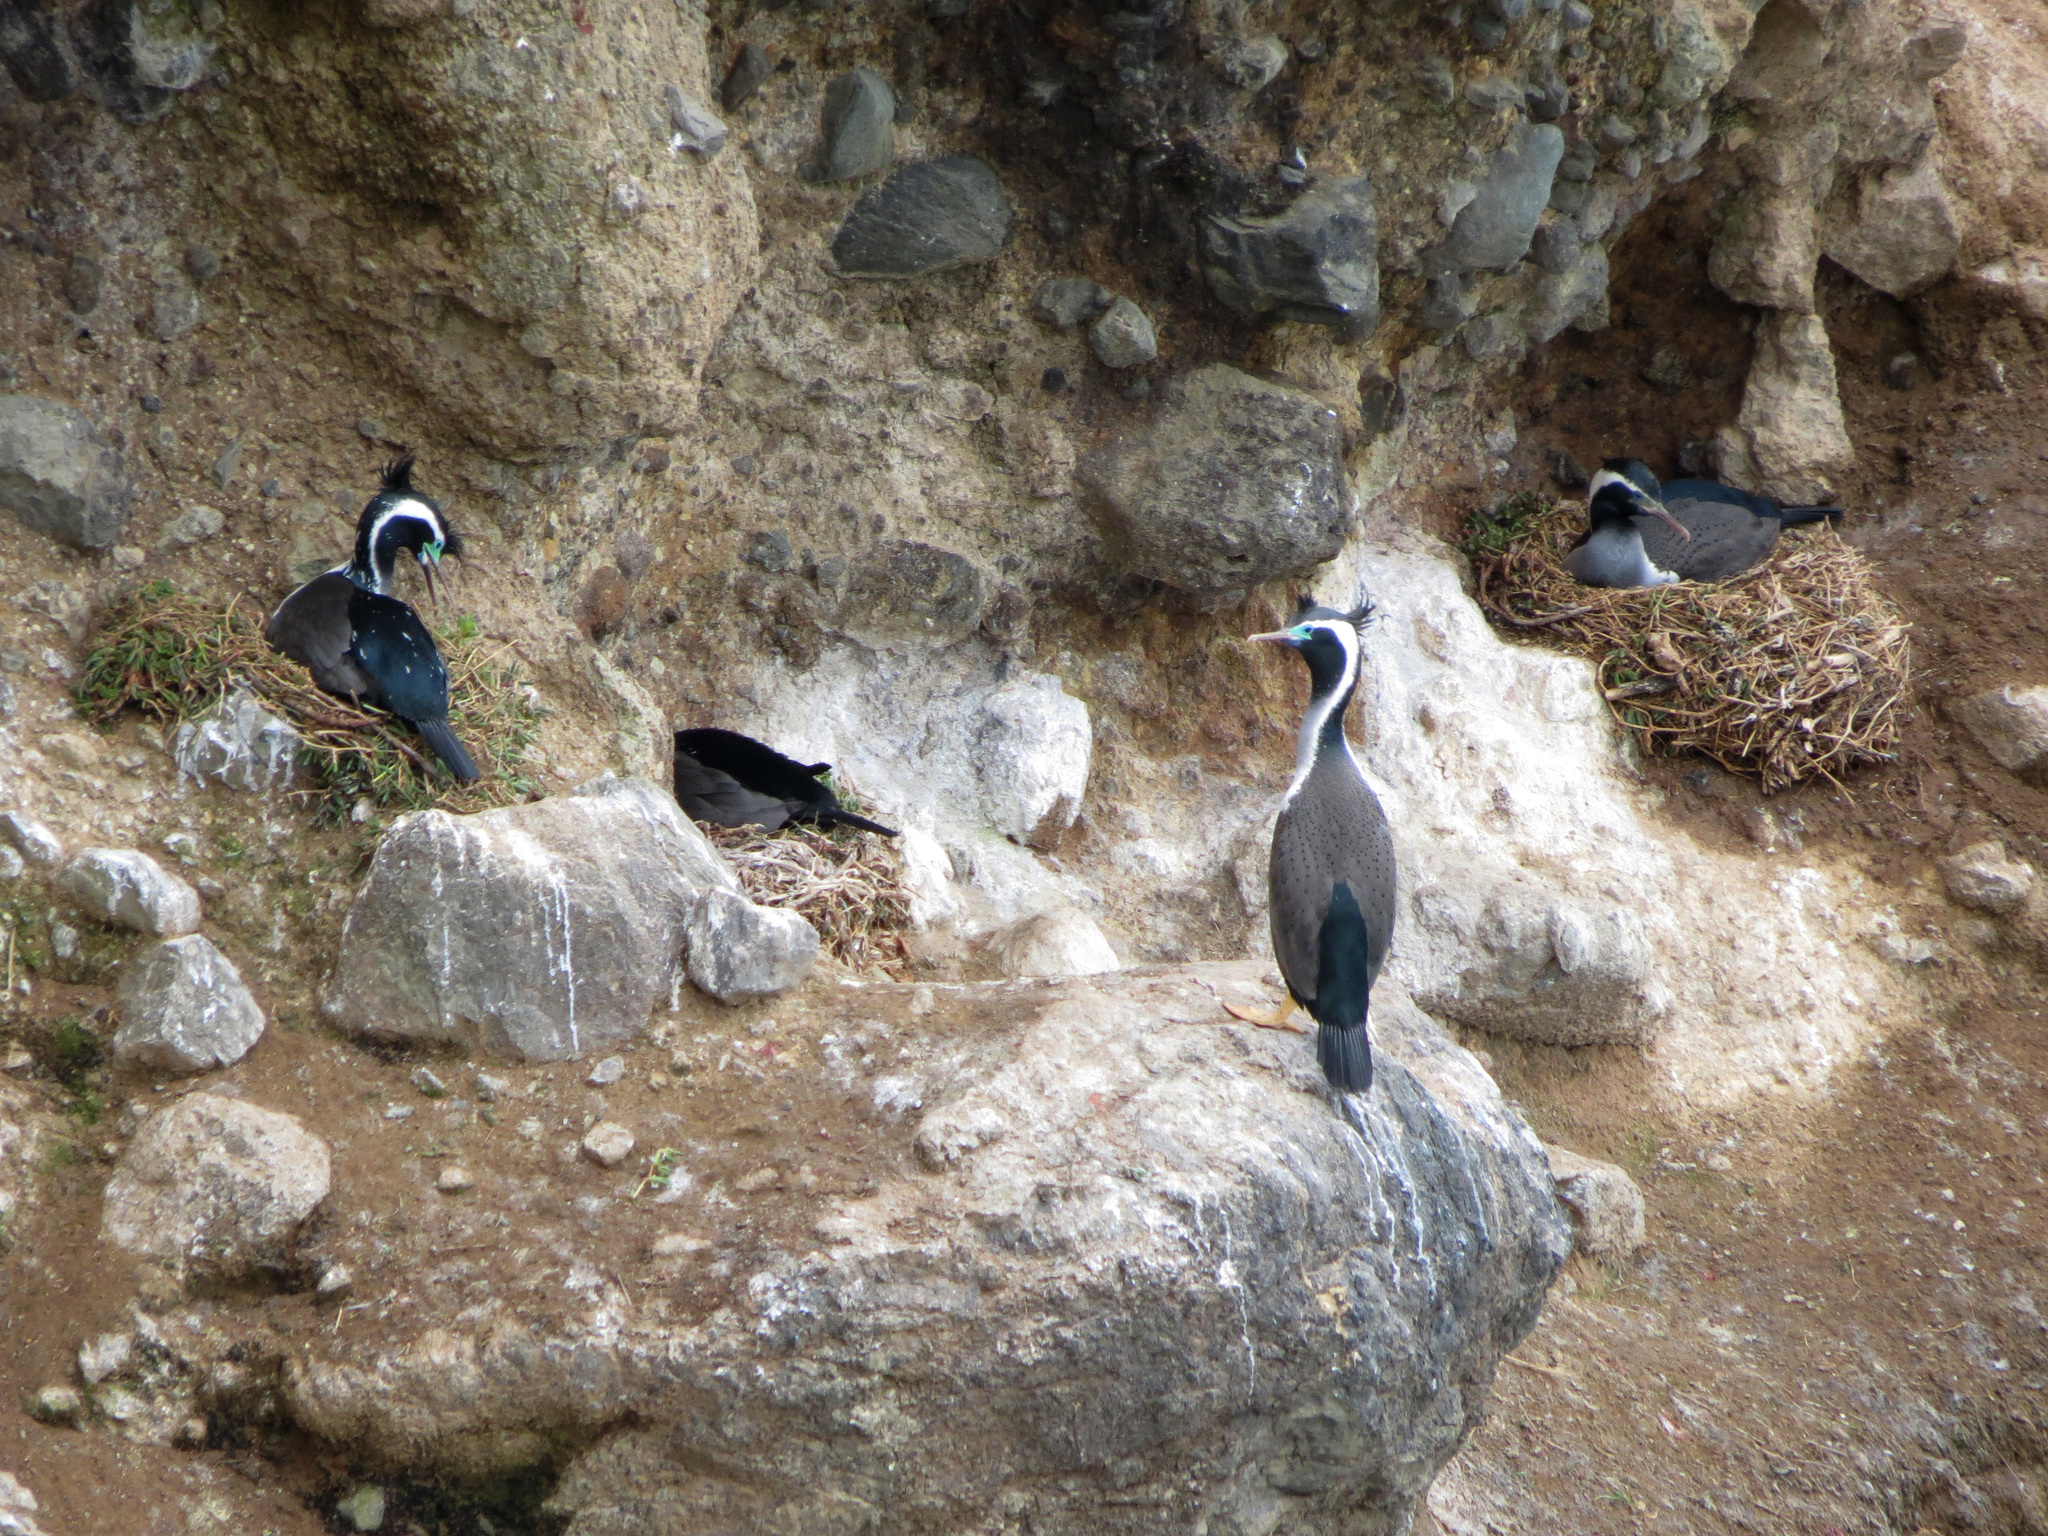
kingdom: Animalia
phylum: Chordata
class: Aves
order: Suliformes
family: Phalacrocoracidae
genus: Phalacrocorax
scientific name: Phalacrocorax punctatus
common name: Spotted shag
